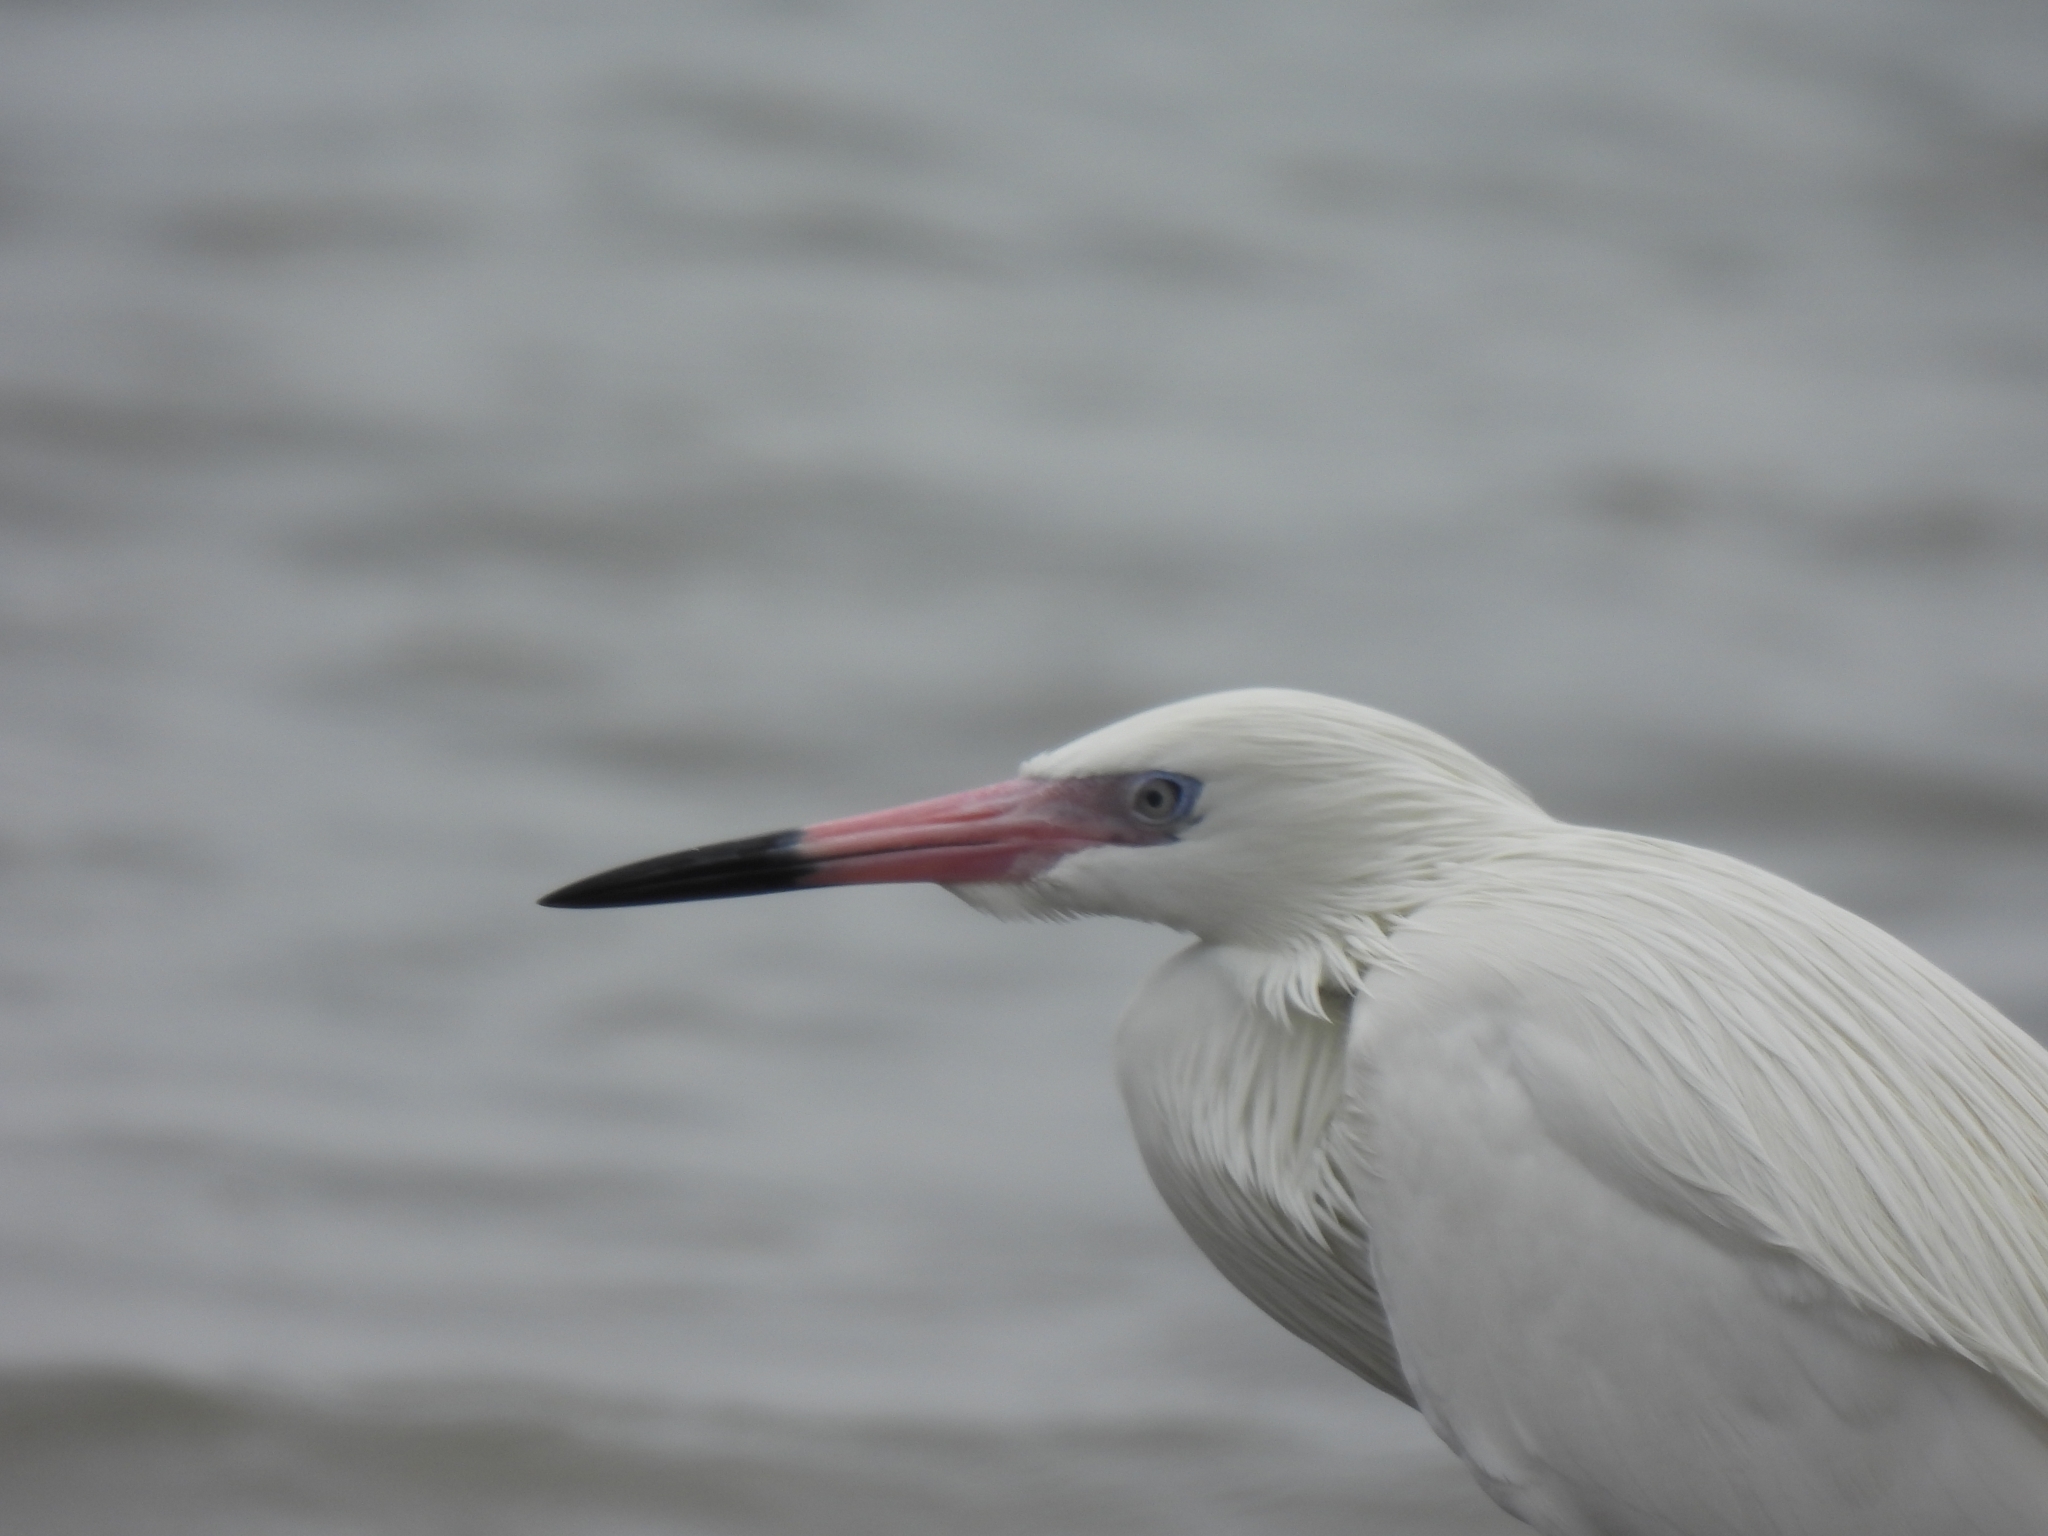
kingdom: Animalia
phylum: Chordata
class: Aves
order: Pelecaniformes
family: Ardeidae
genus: Egretta
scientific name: Egretta rufescens
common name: Reddish egret
